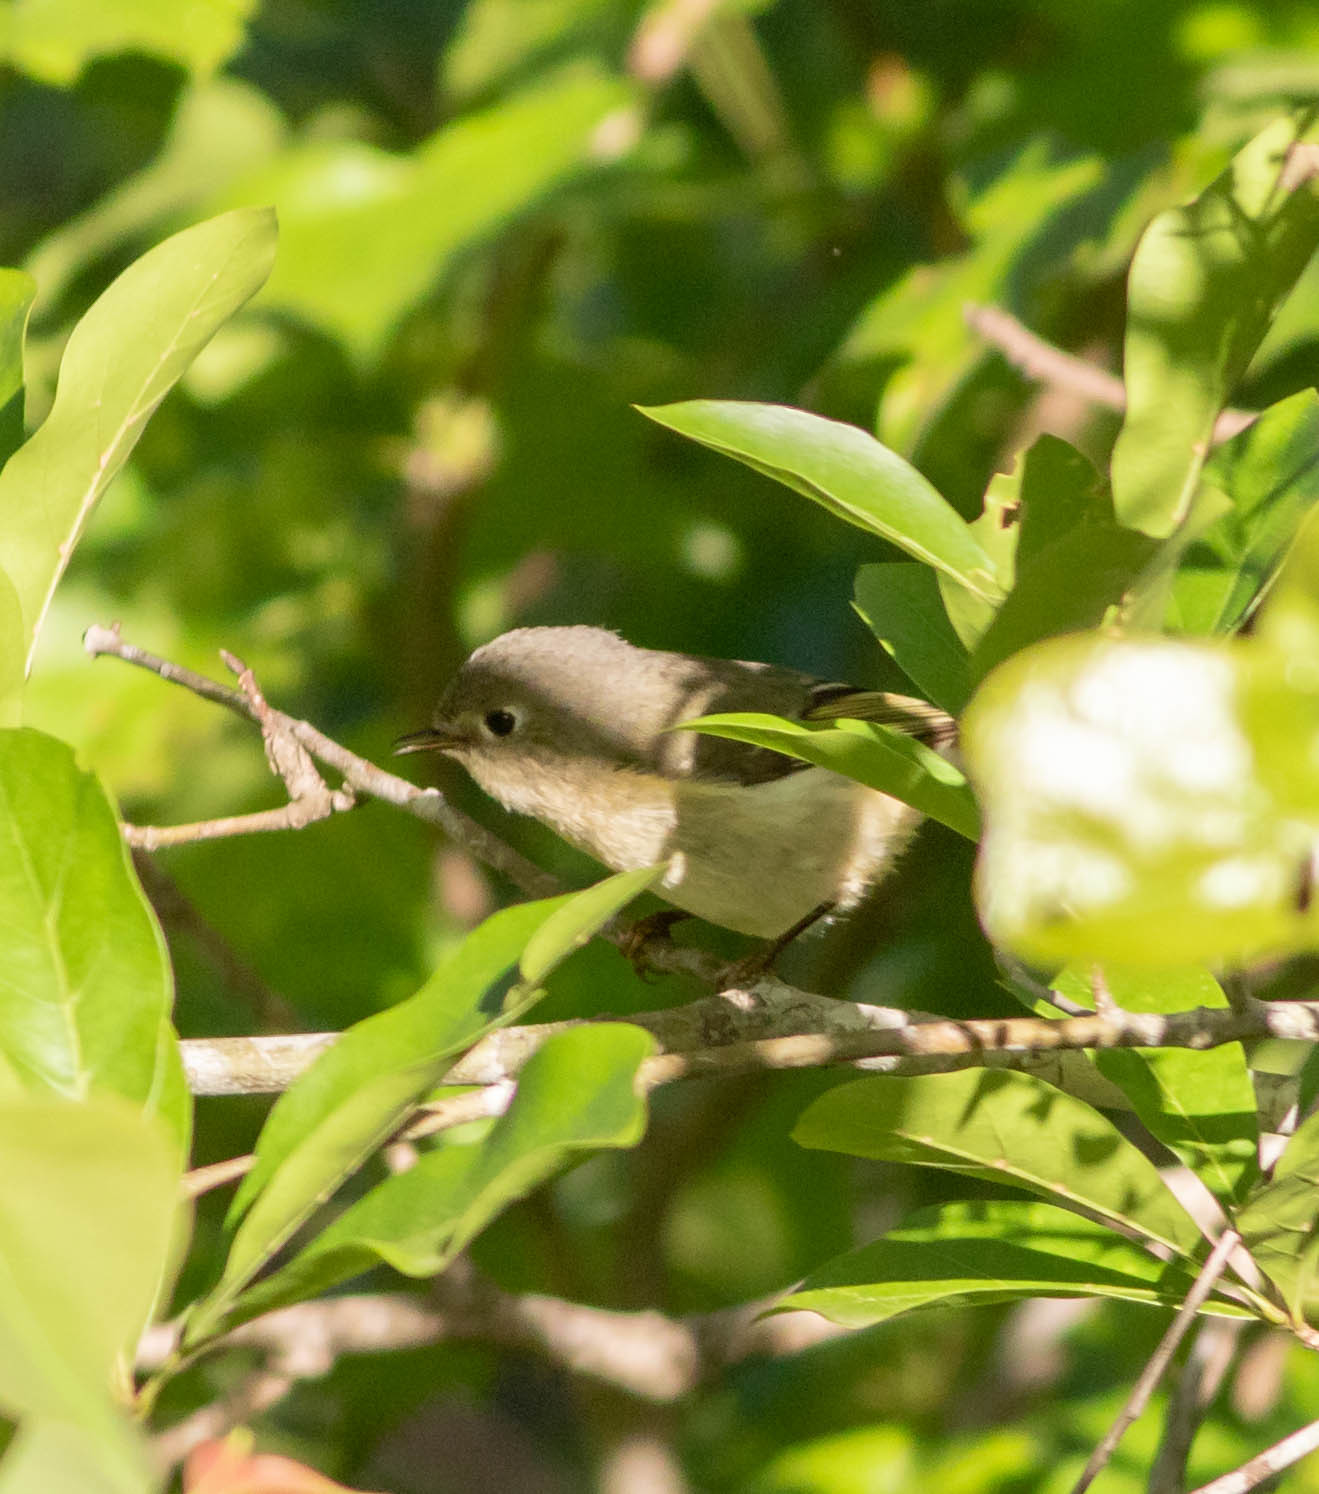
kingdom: Animalia
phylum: Chordata
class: Aves
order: Passeriformes
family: Regulidae
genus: Regulus
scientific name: Regulus calendula
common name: Ruby-crowned kinglet
